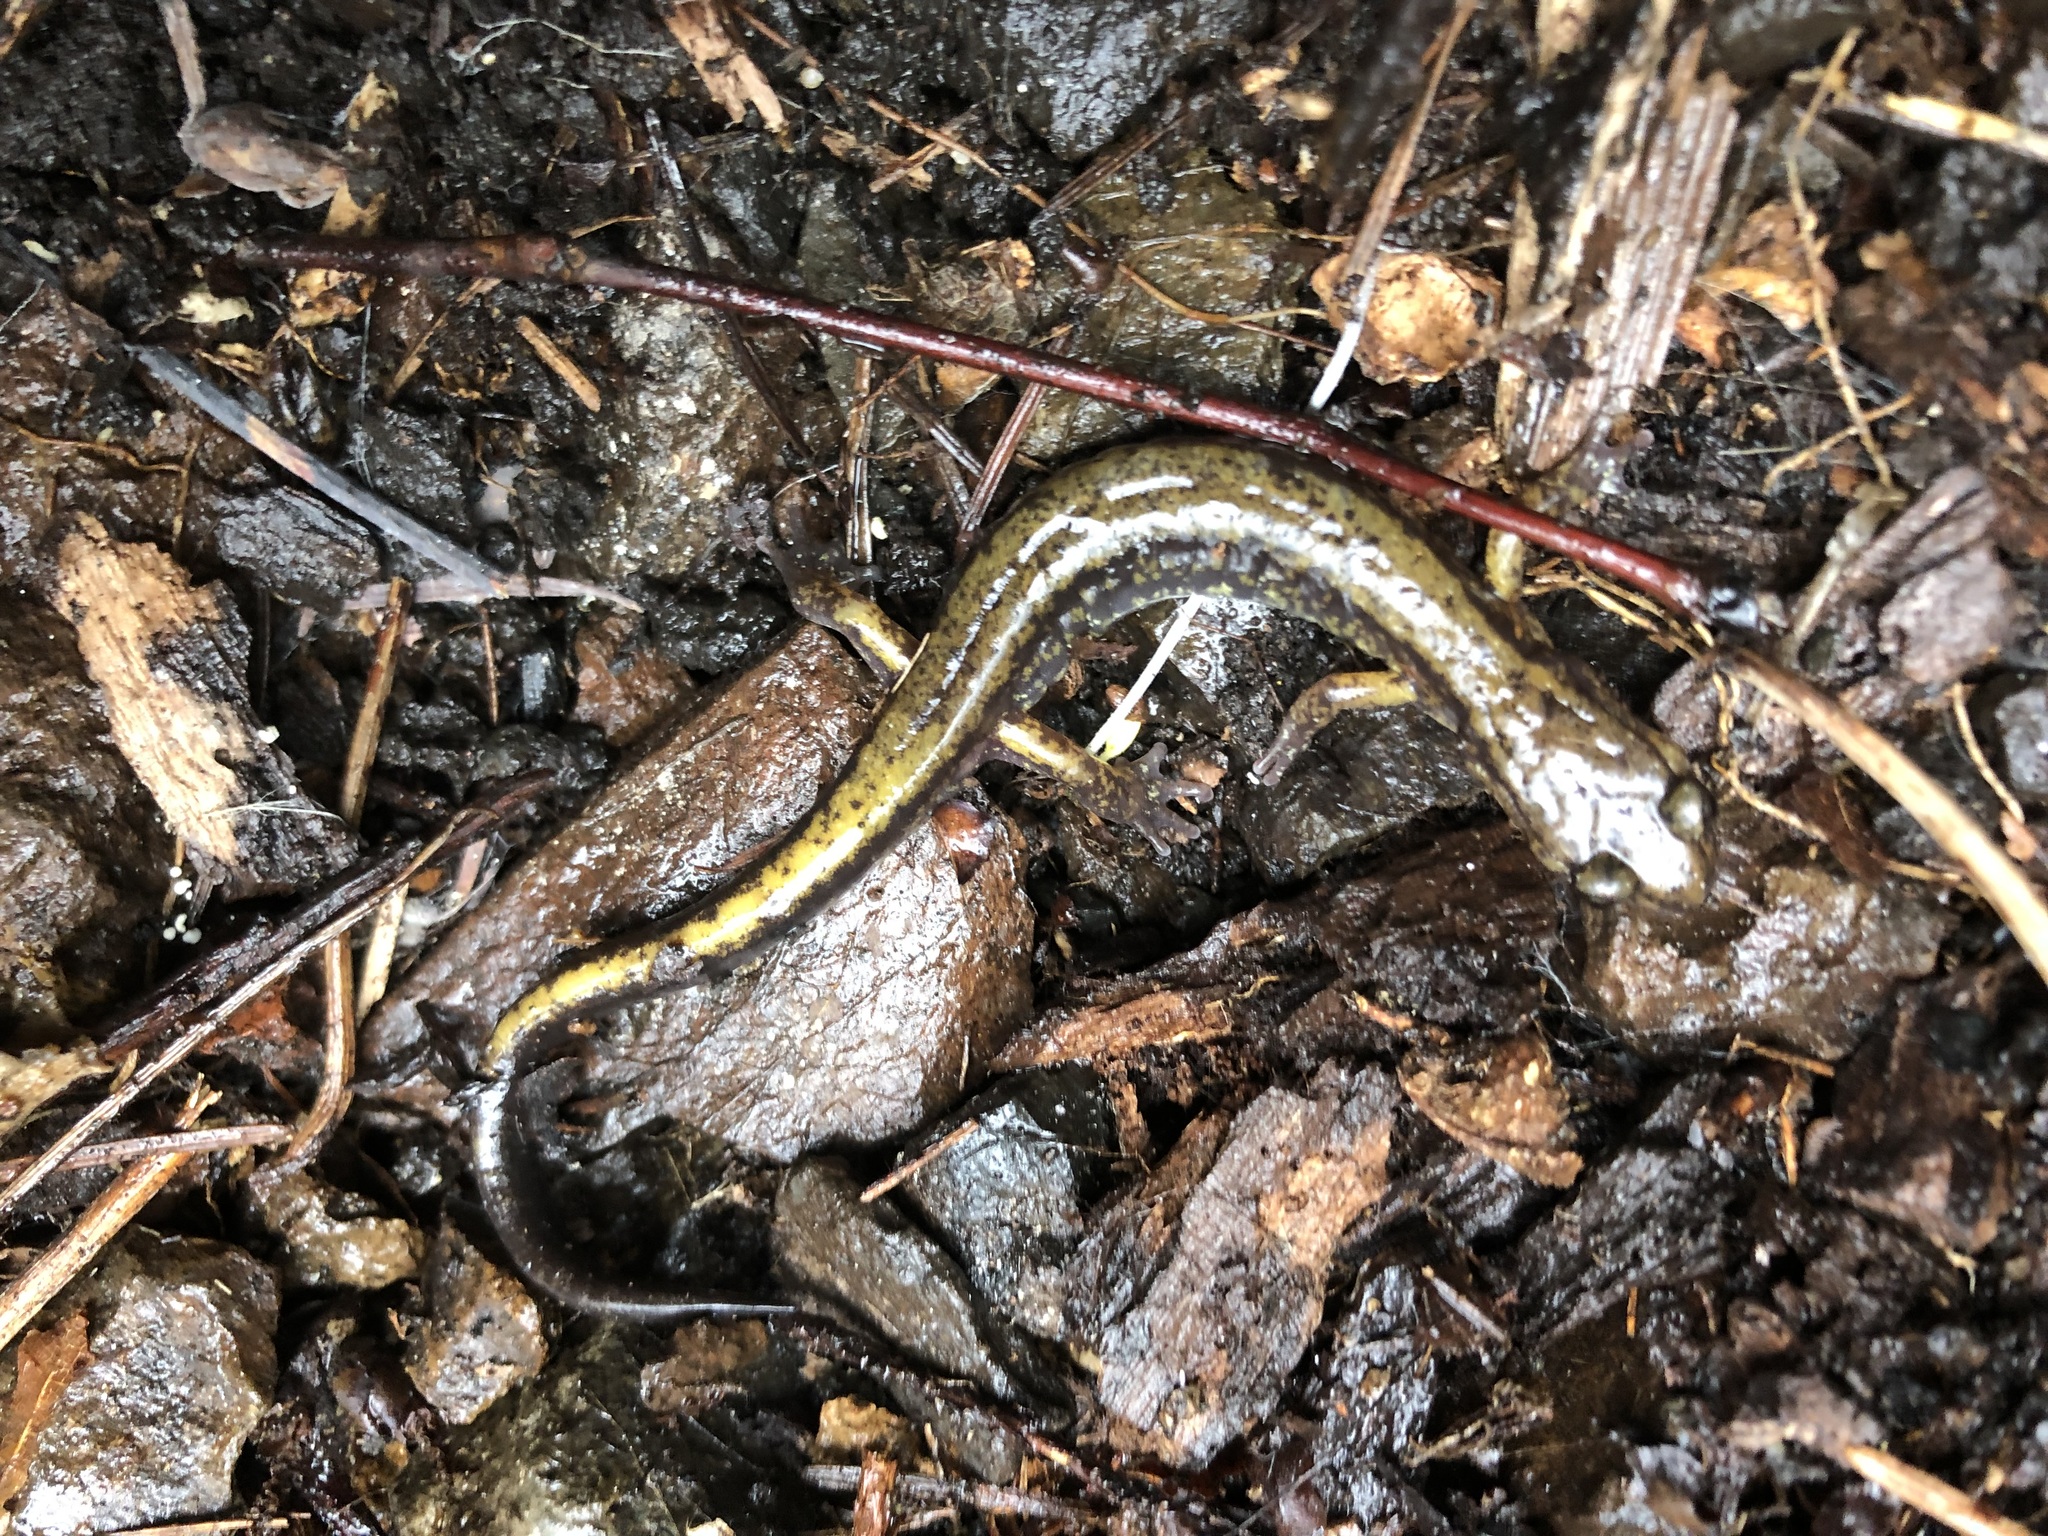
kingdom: Animalia
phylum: Chordata
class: Amphibia
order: Caudata
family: Plethodontidae
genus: Plethodon
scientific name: Plethodon dunni
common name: Dunn's salamander
